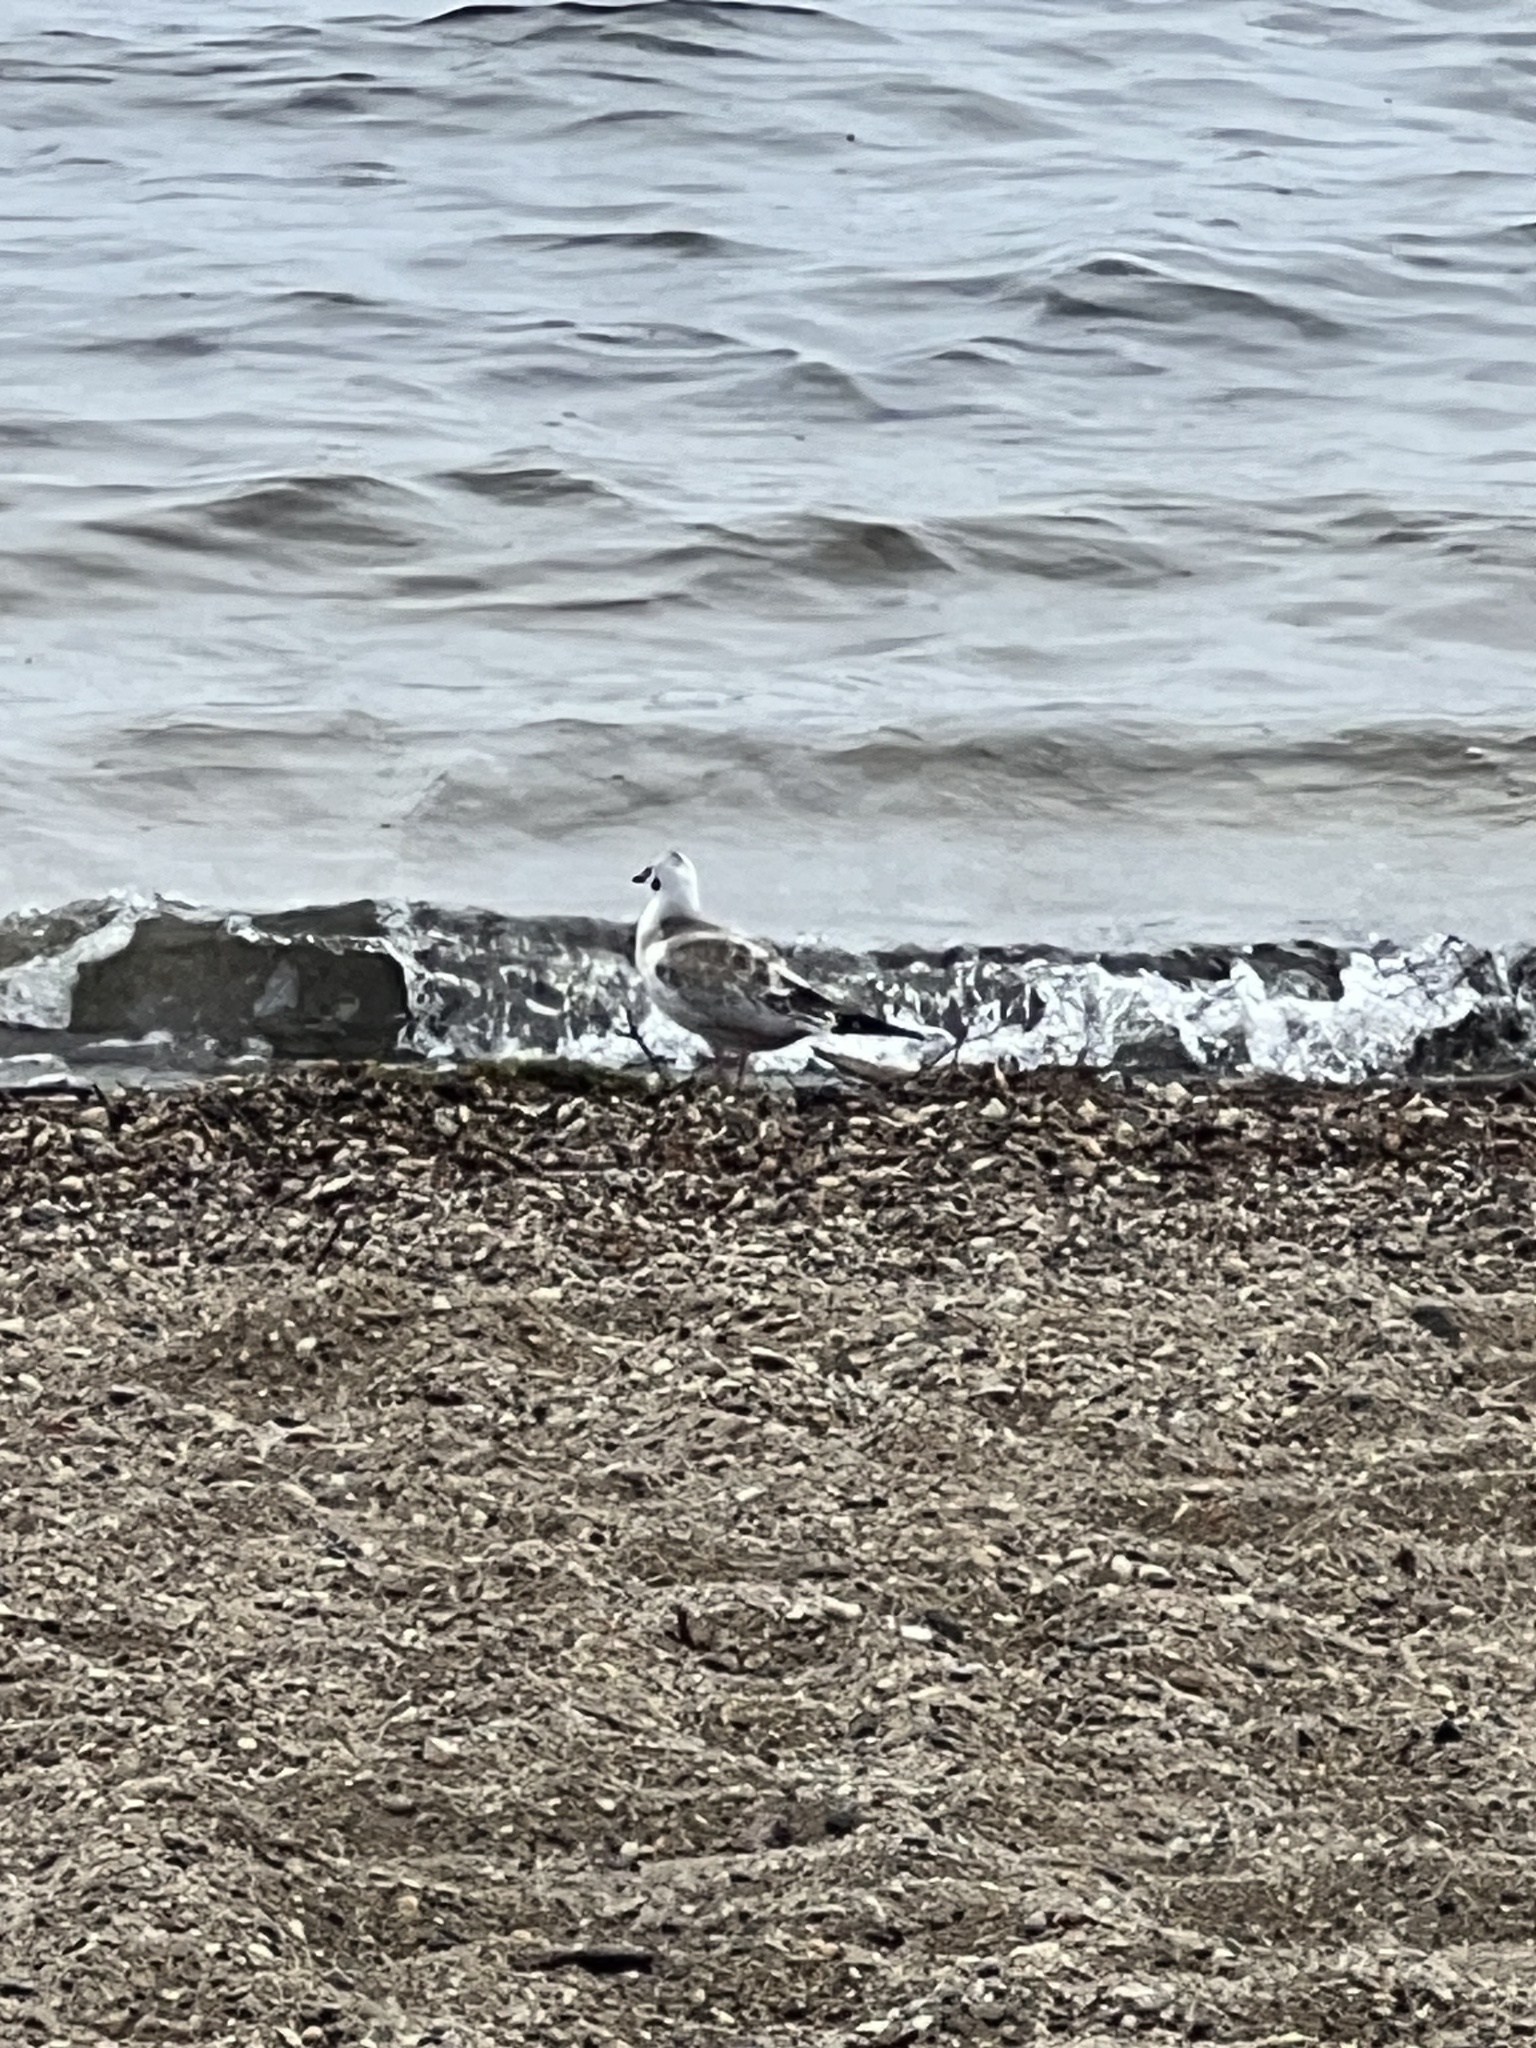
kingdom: Animalia
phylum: Chordata
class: Aves
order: Charadriiformes
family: Laridae
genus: Chroicocephalus
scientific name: Chroicocephalus philadelphia
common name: Bonaparte's gull
